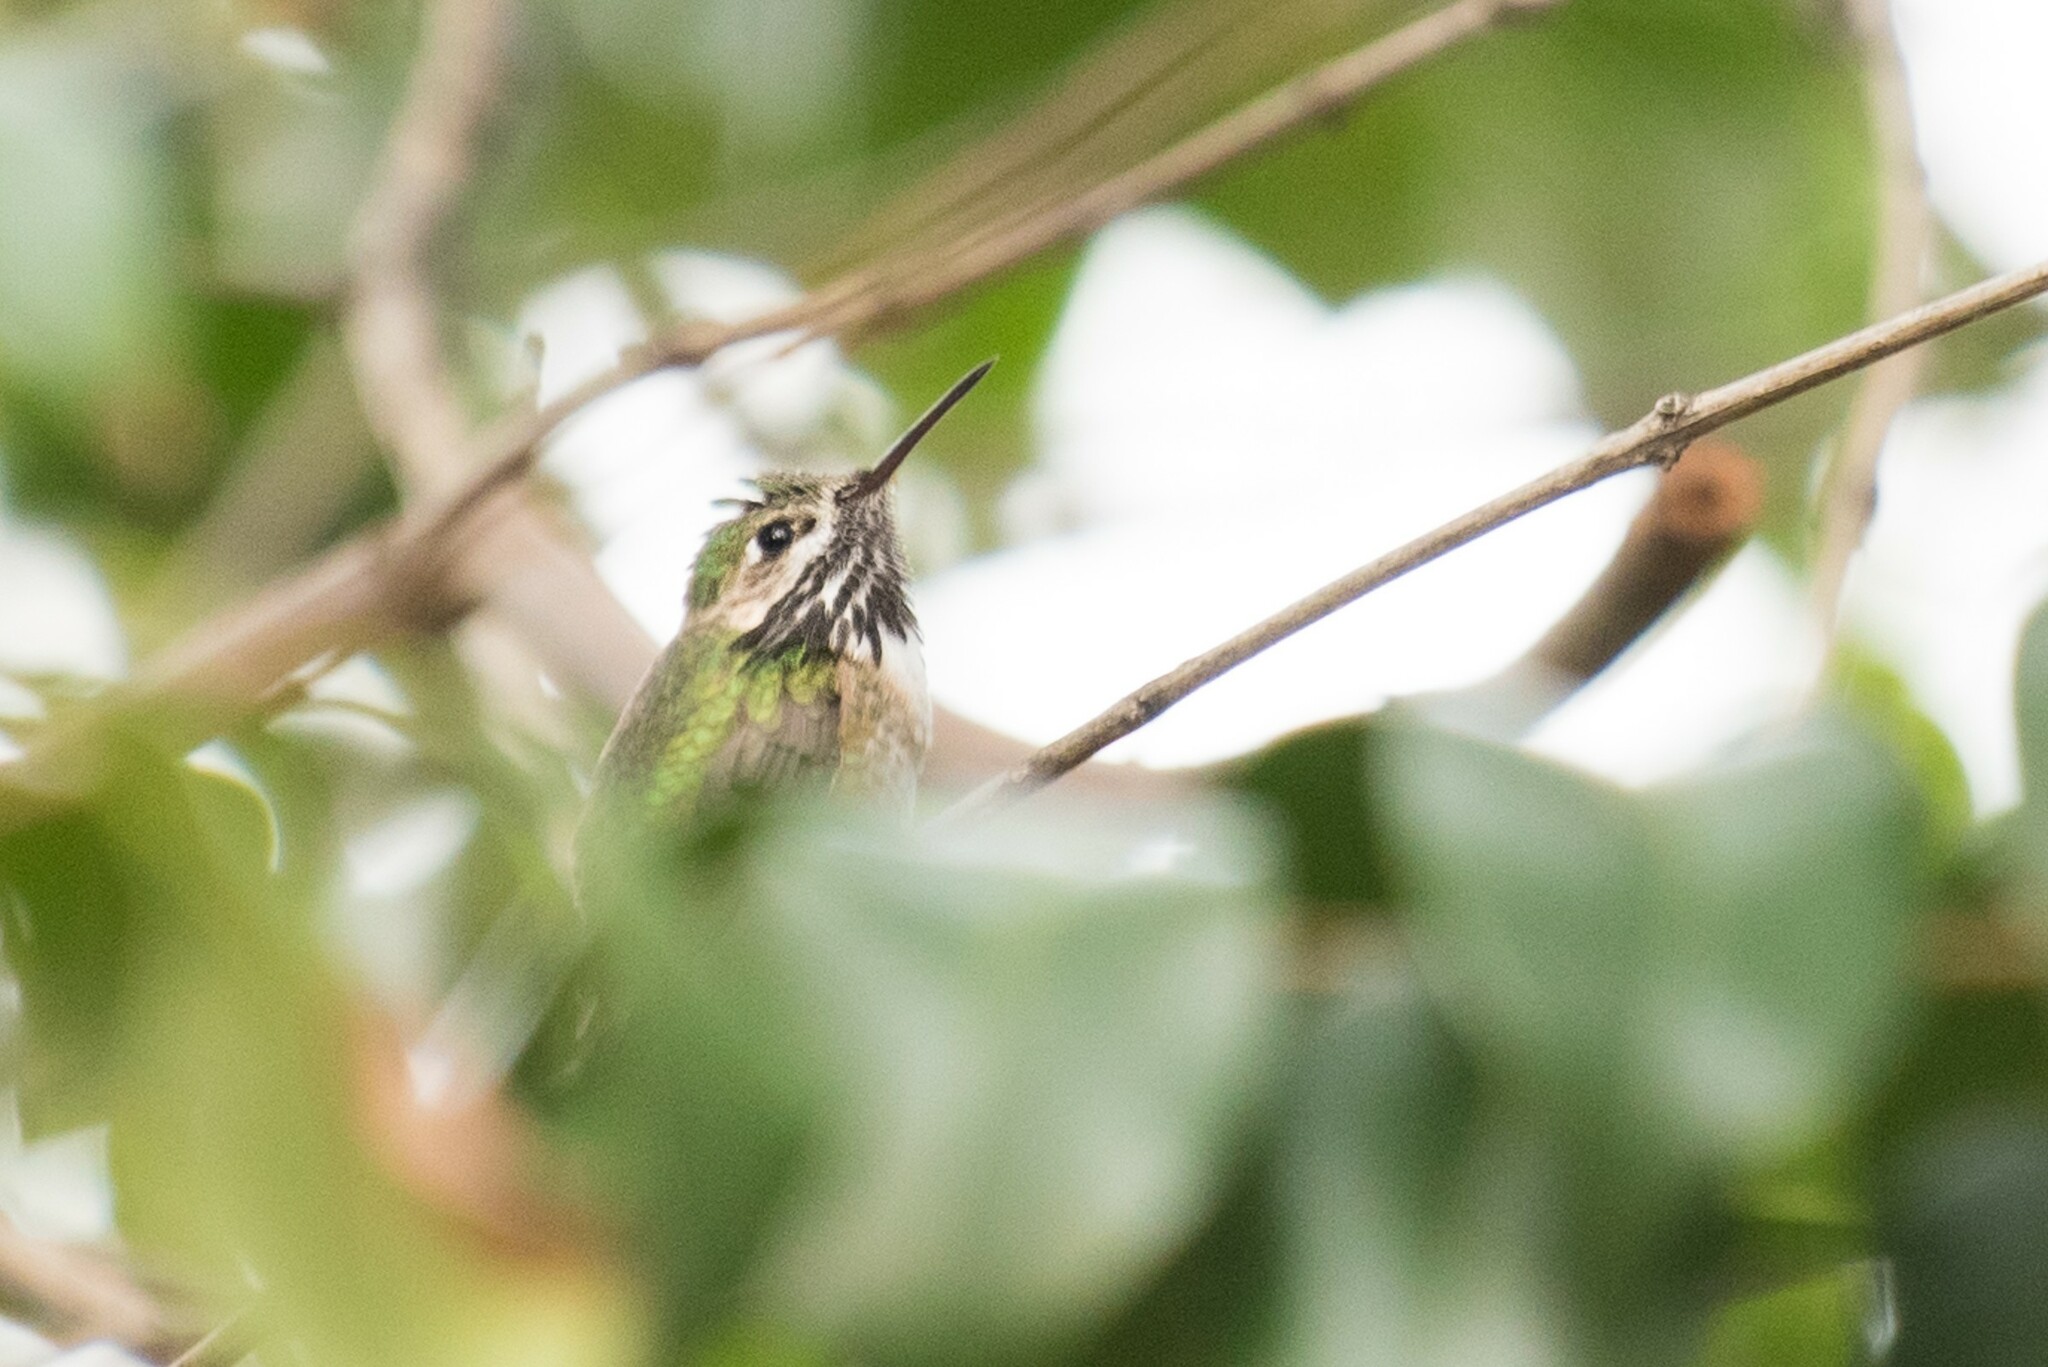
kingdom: Animalia
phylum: Chordata
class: Aves
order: Apodiformes
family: Trochilidae
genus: Selasphorus
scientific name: Selasphorus calliope
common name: Calliope hummingbird
